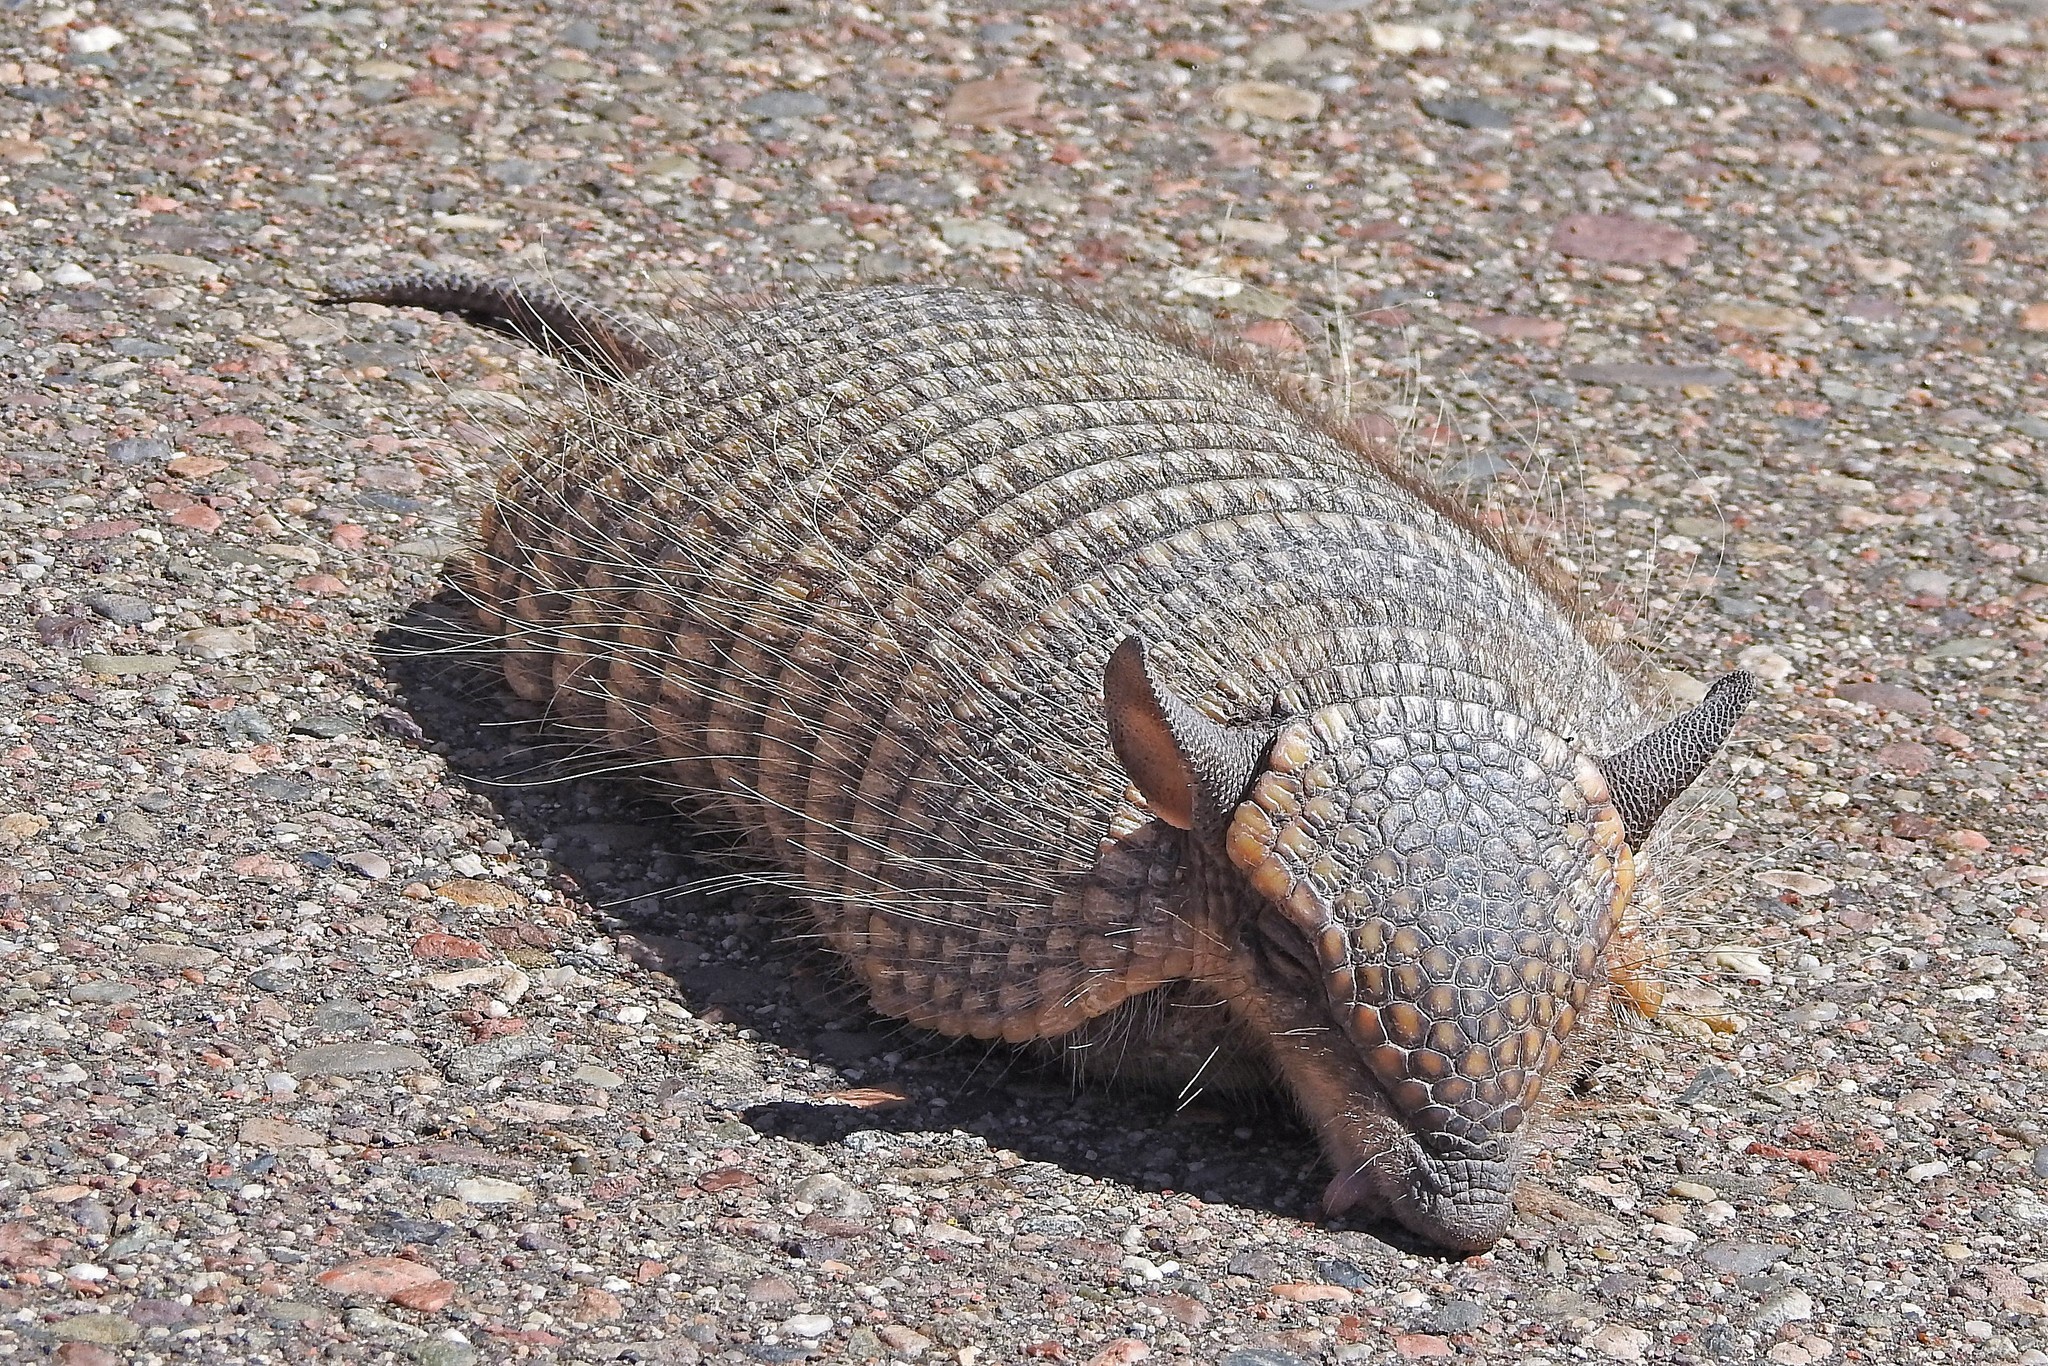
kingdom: Animalia
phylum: Chordata
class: Mammalia
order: Cingulata
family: Dasypodidae
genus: Chaetophractus
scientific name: Chaetophractus vellerosus
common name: Screaming hairy armadillo
